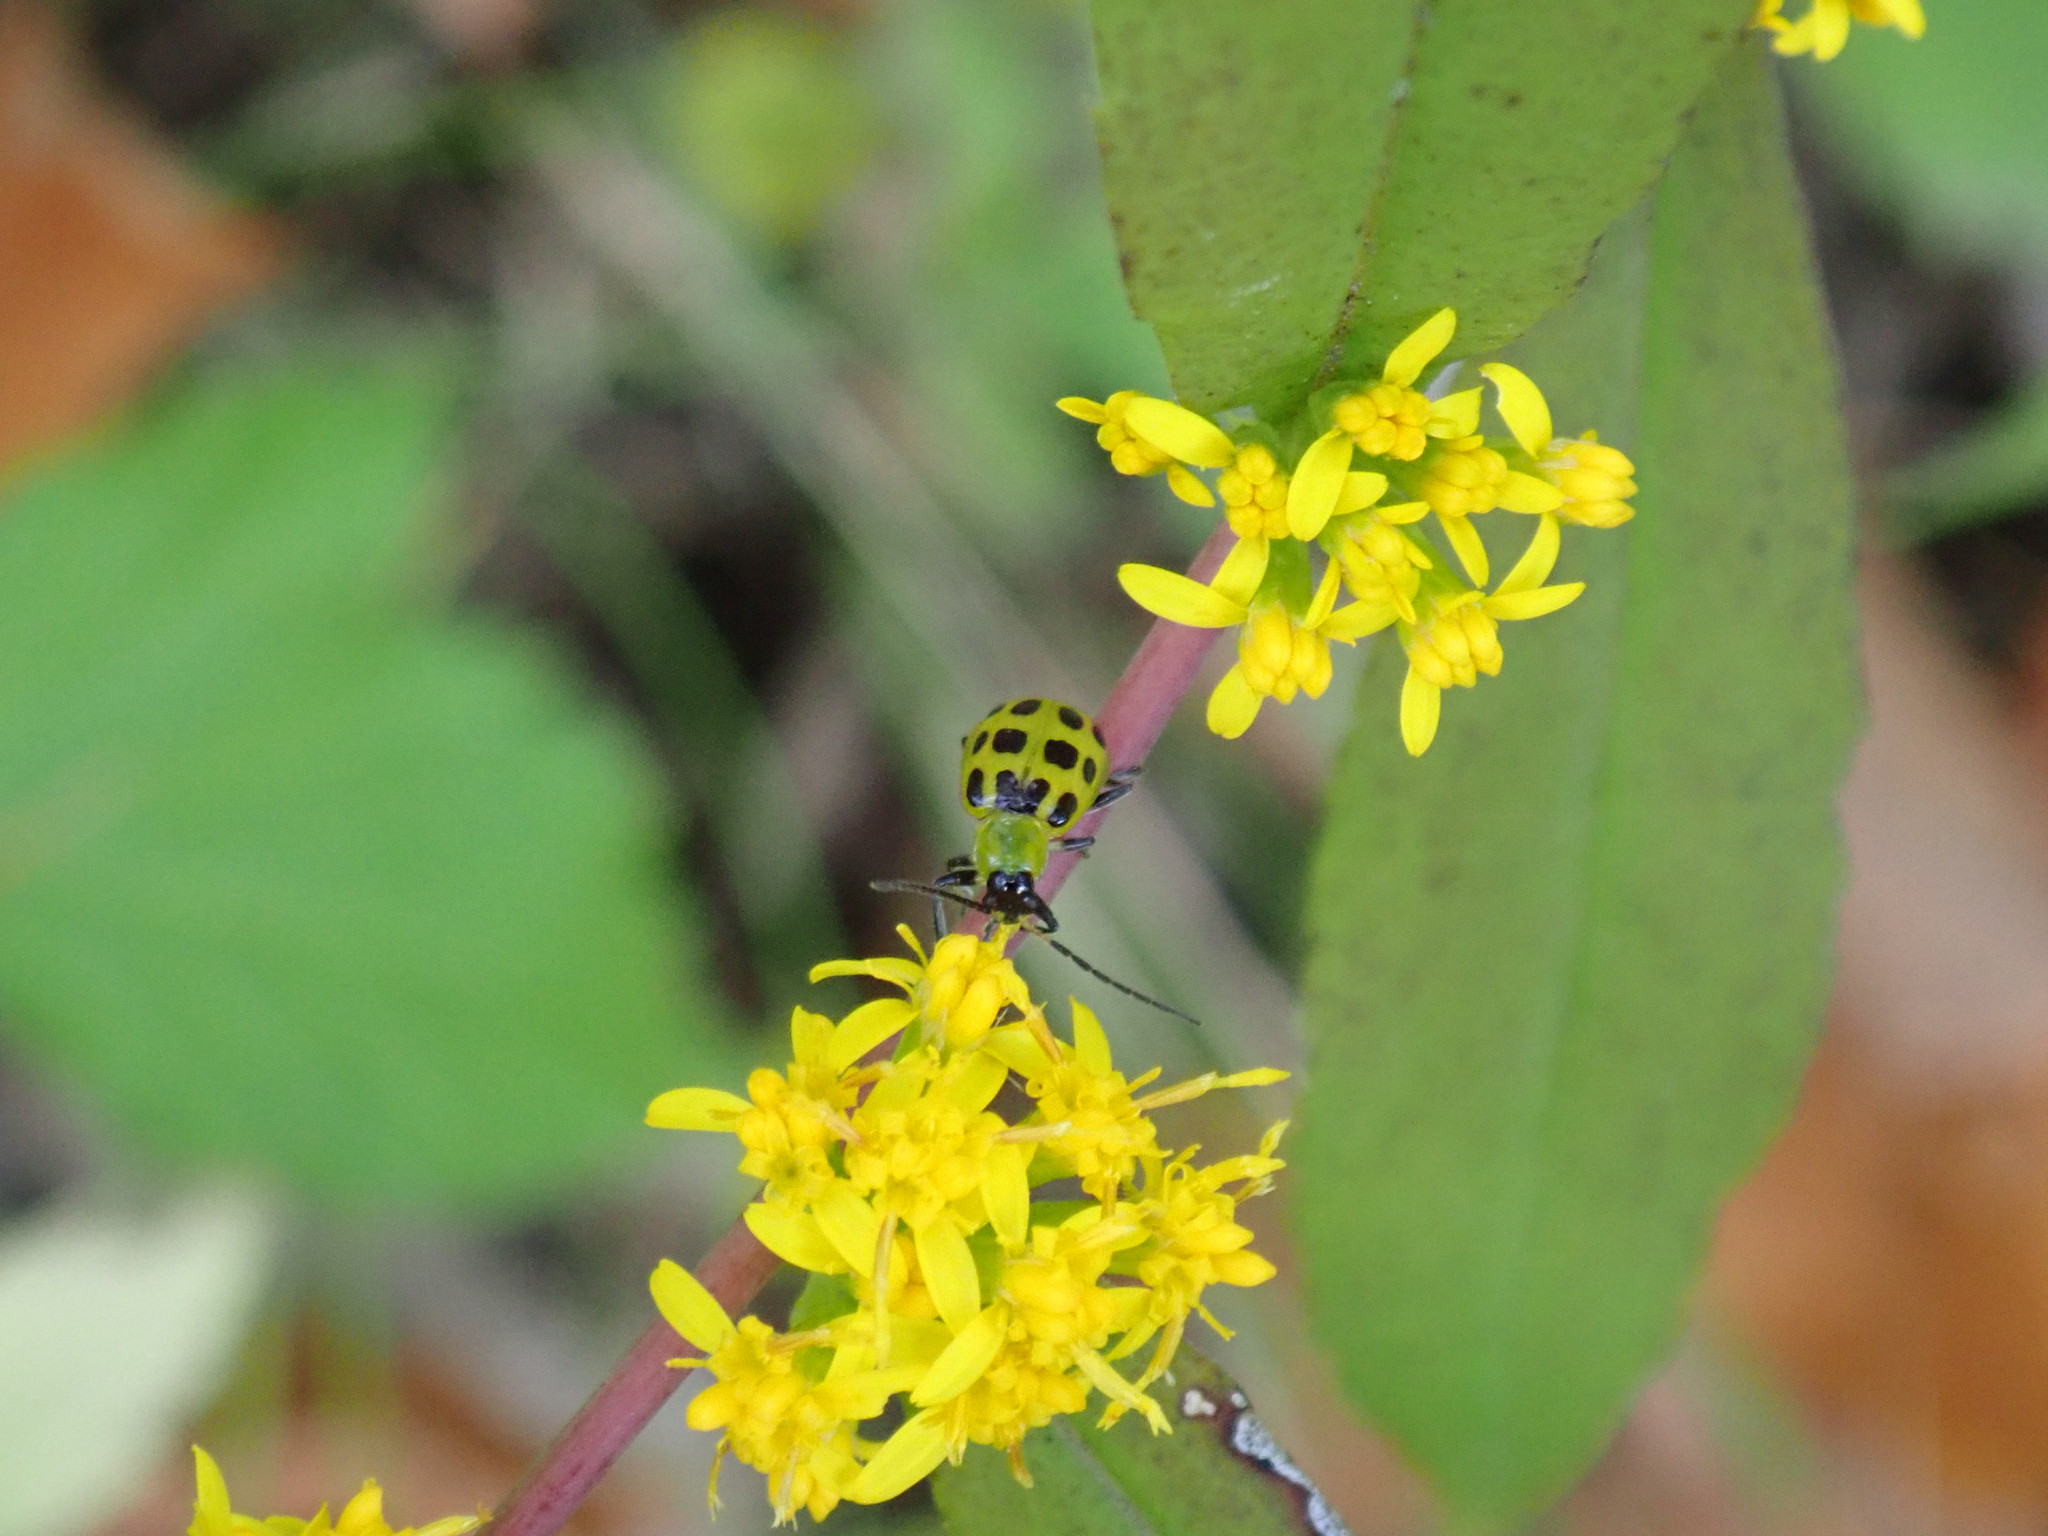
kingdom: Animalia
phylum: Arthropoda
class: Insecta
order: Coleoptera
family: Chrysomelidae
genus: Diabrotica
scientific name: Diabrotica undecimpunctata
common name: Spotted cucumber beetle
